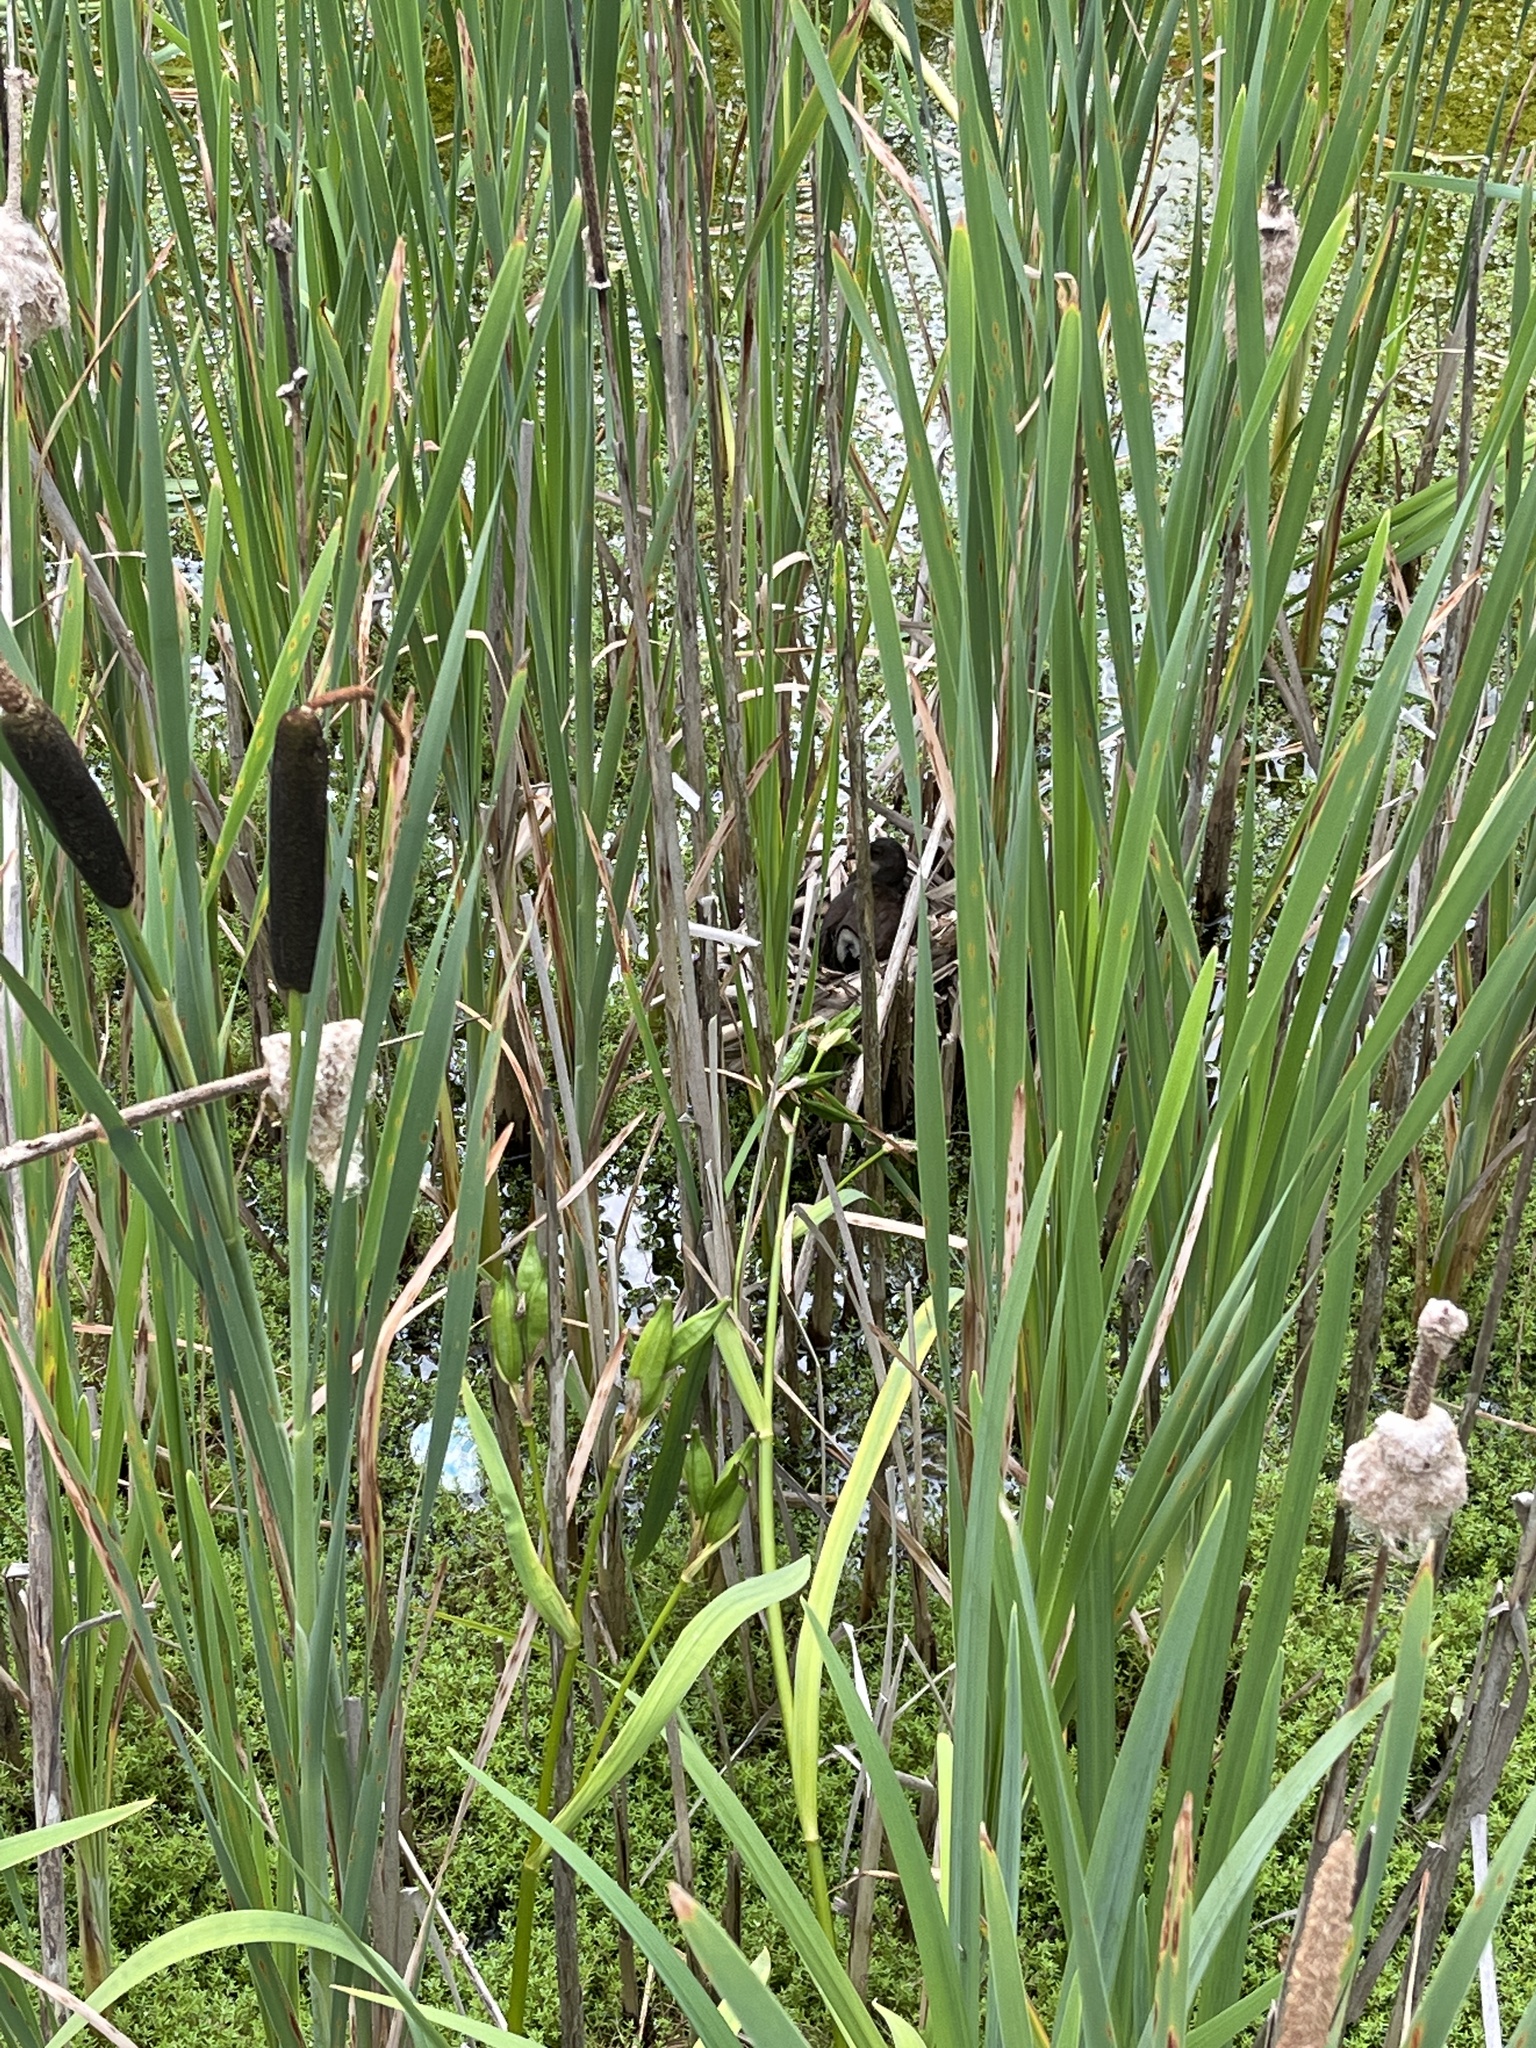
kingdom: Animalia
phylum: Chordata
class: Aves
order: Gruiformes
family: Rallidae
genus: Gallinula
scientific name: Gallinula chloropus
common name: Common moorhen
